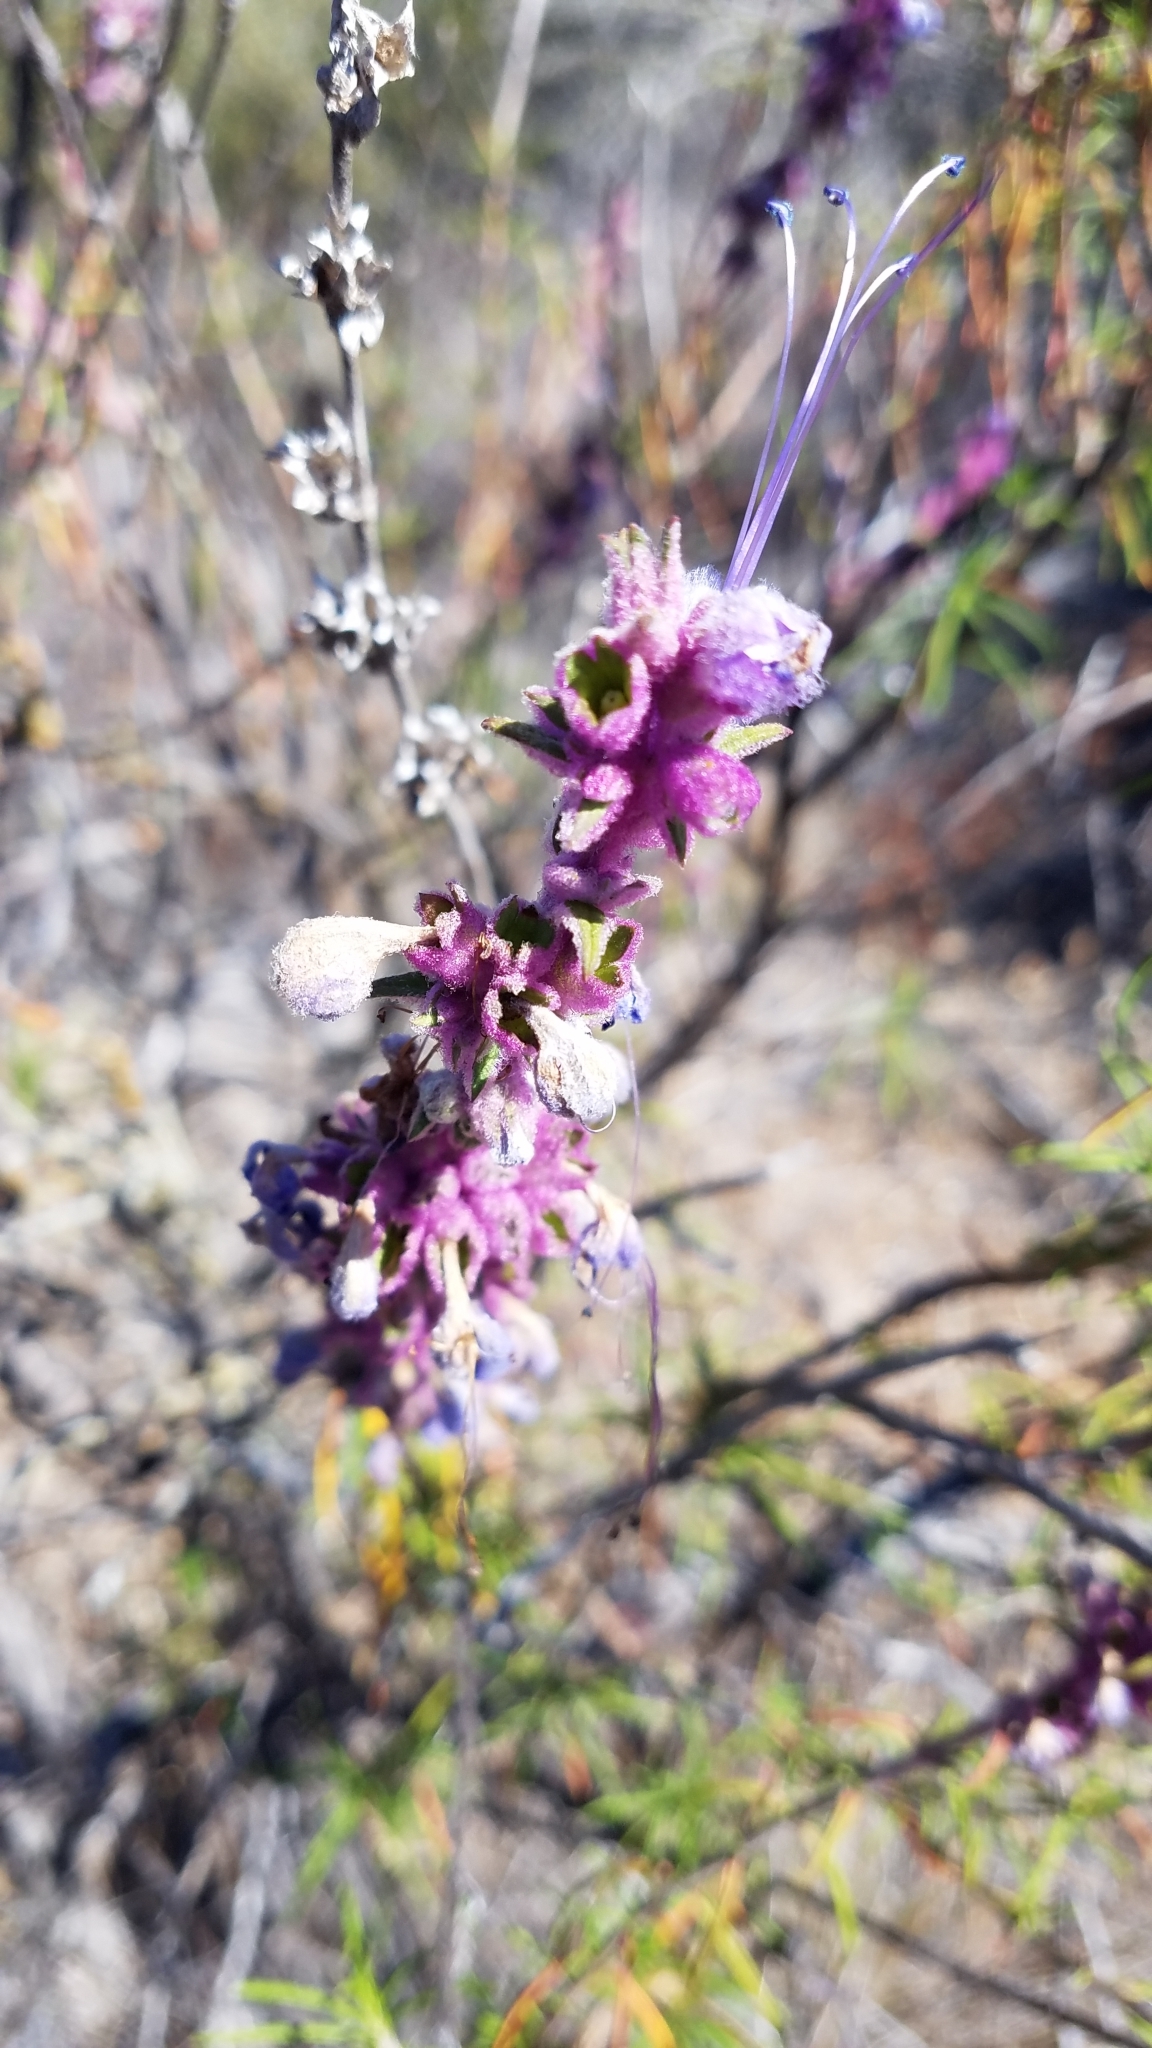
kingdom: Plantae
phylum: Tracheophyta
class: Magnoliopsida
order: Lamiales
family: Lamiaceae
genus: Trichostema
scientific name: Trichostema lanatum
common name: Woolly bluecurls
